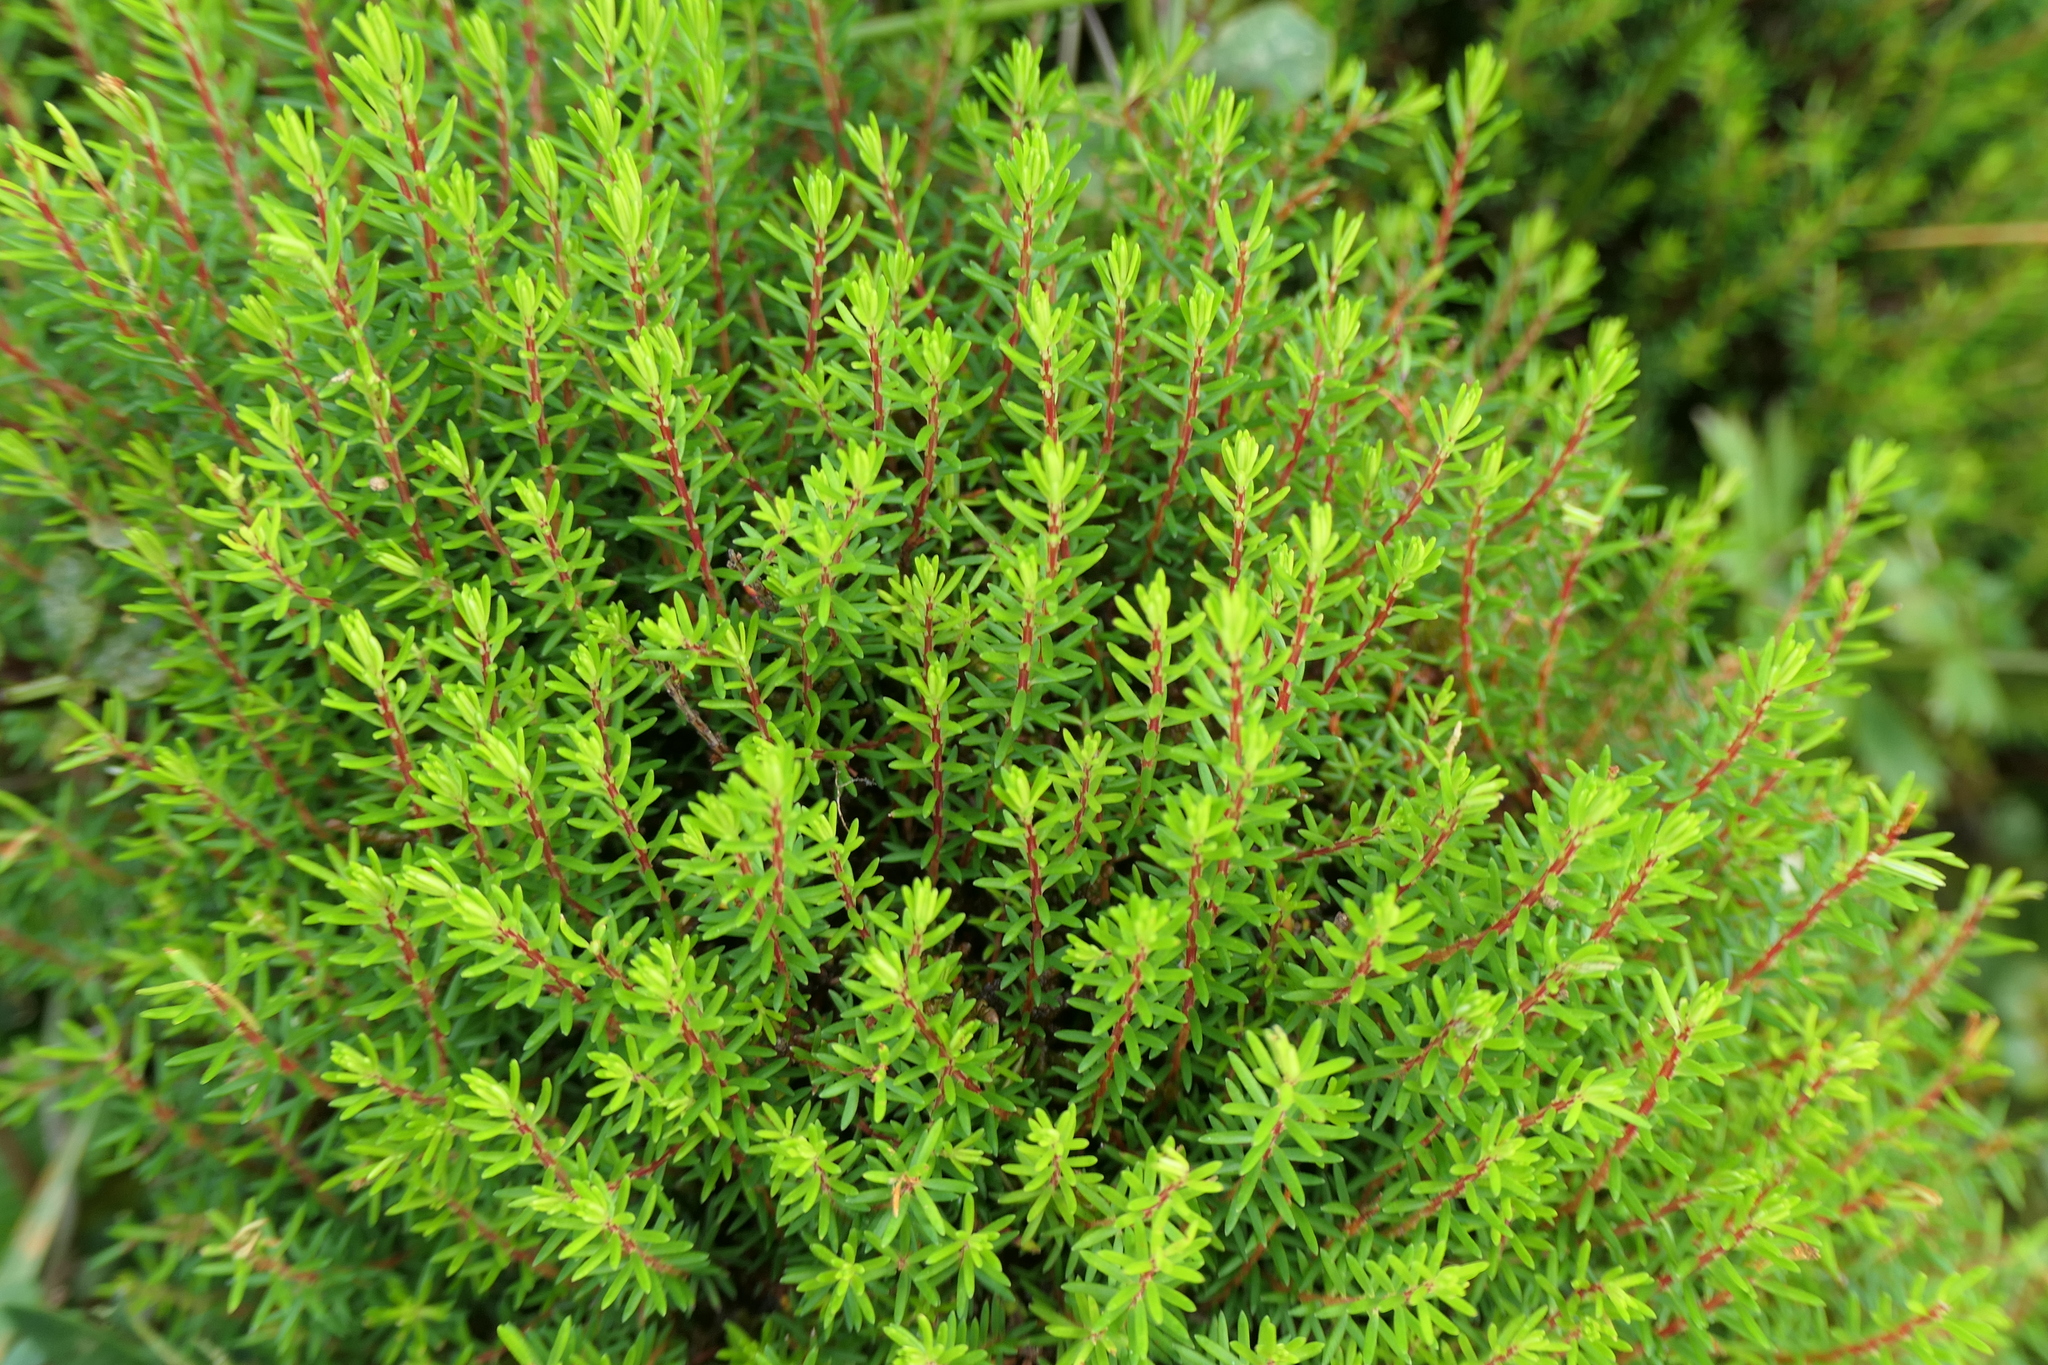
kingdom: Plantae
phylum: Tracheophyta
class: Magnoliopsida
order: Ericales
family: Ericaceae
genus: Erica
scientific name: Erica azorica
